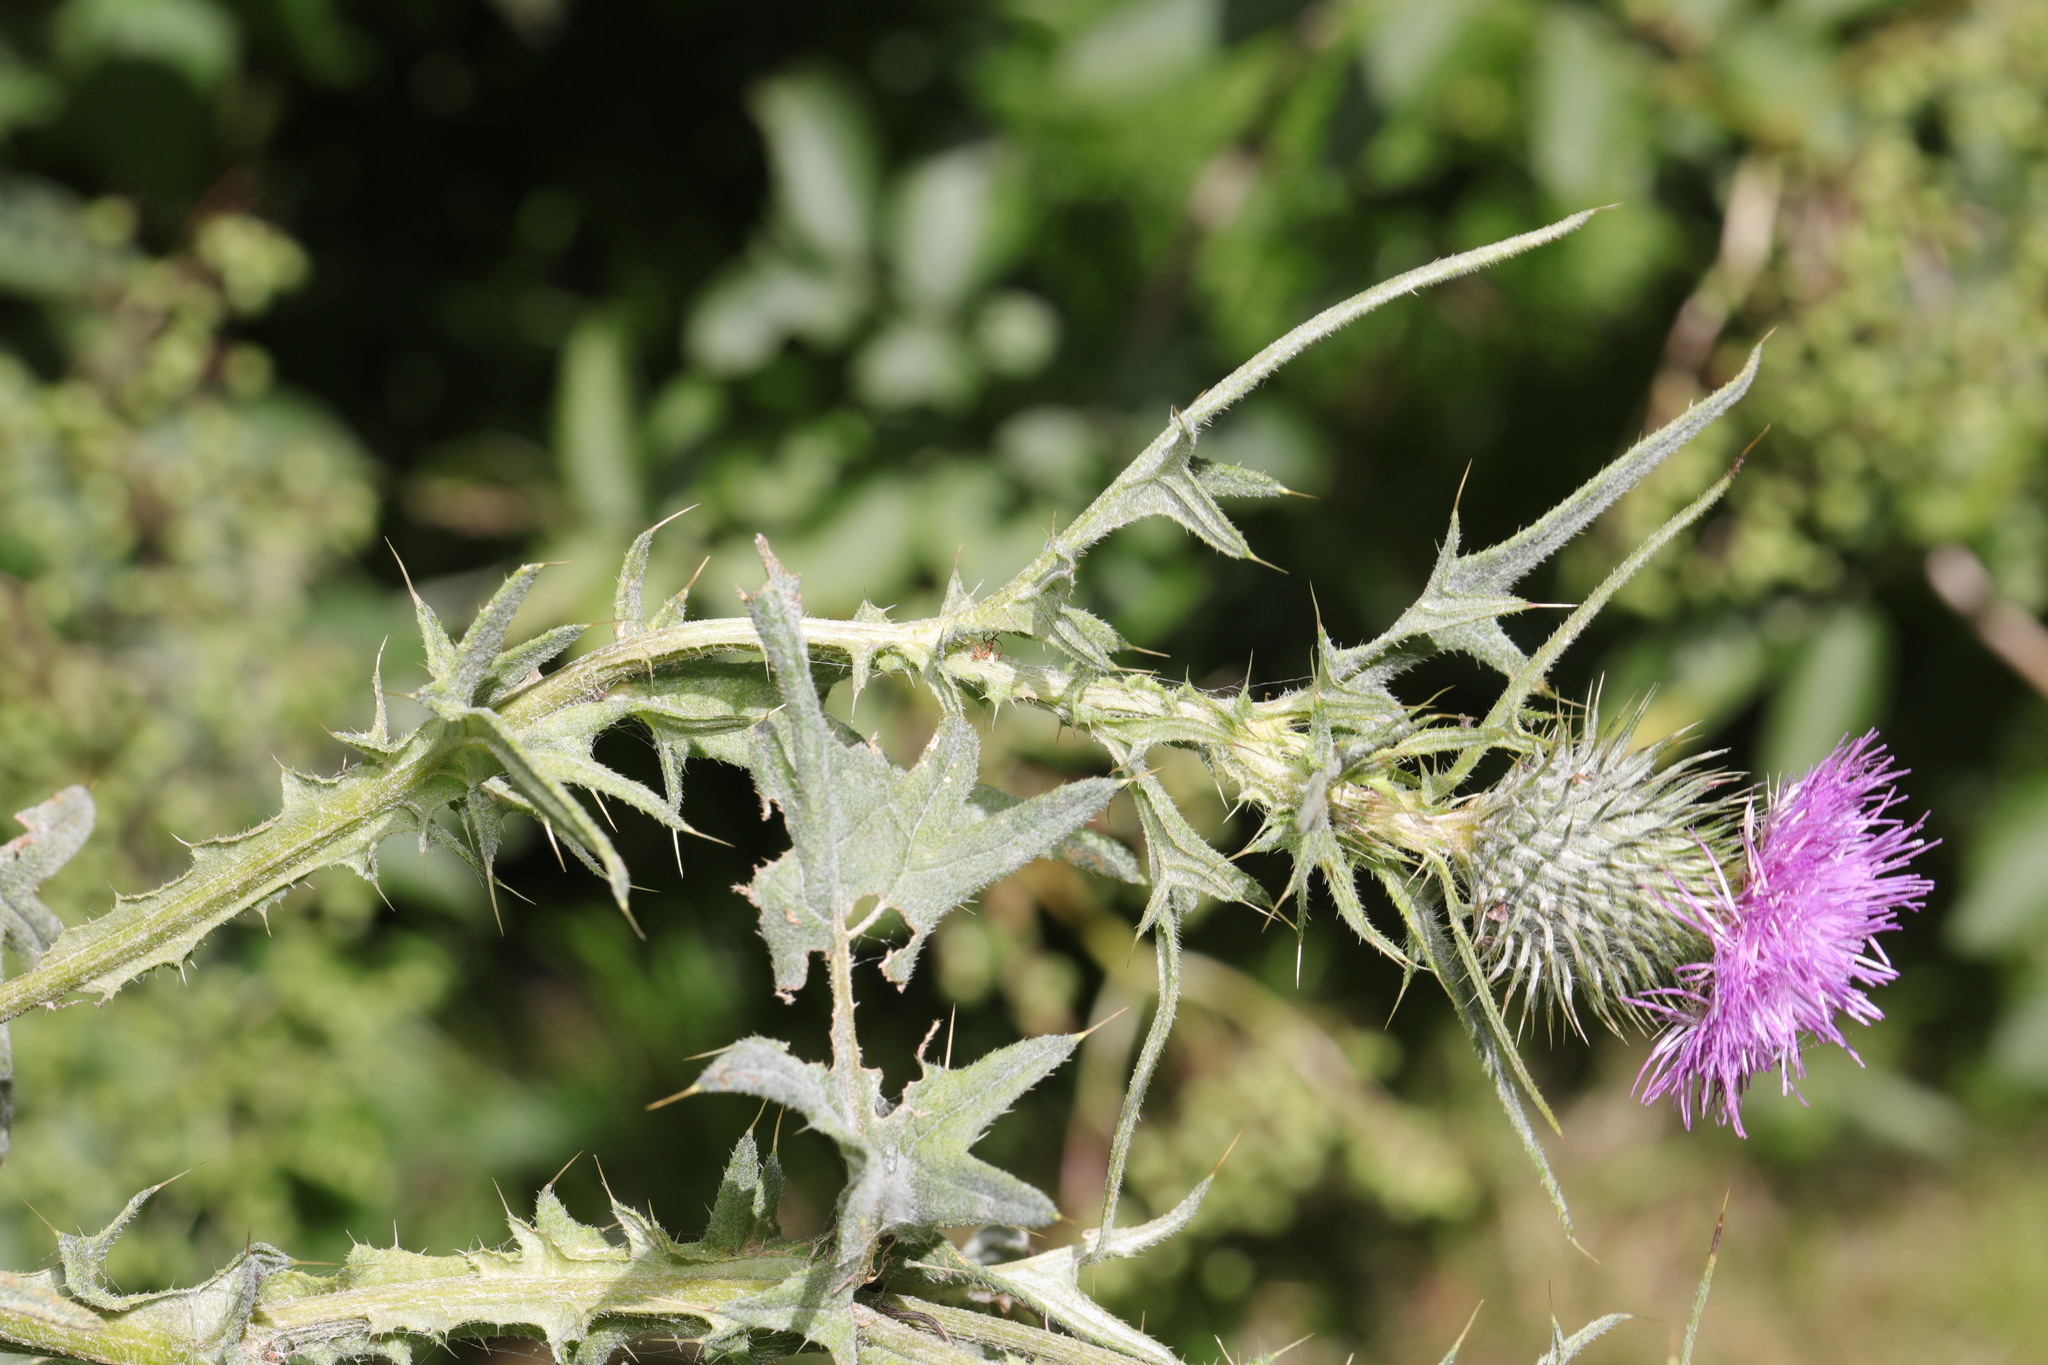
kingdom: Plantae
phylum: Tracheophyta
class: Magnoliopsida
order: Asterales
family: Asteraceae
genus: Cirsium
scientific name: Cirsium vulgare
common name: Bull thistle
